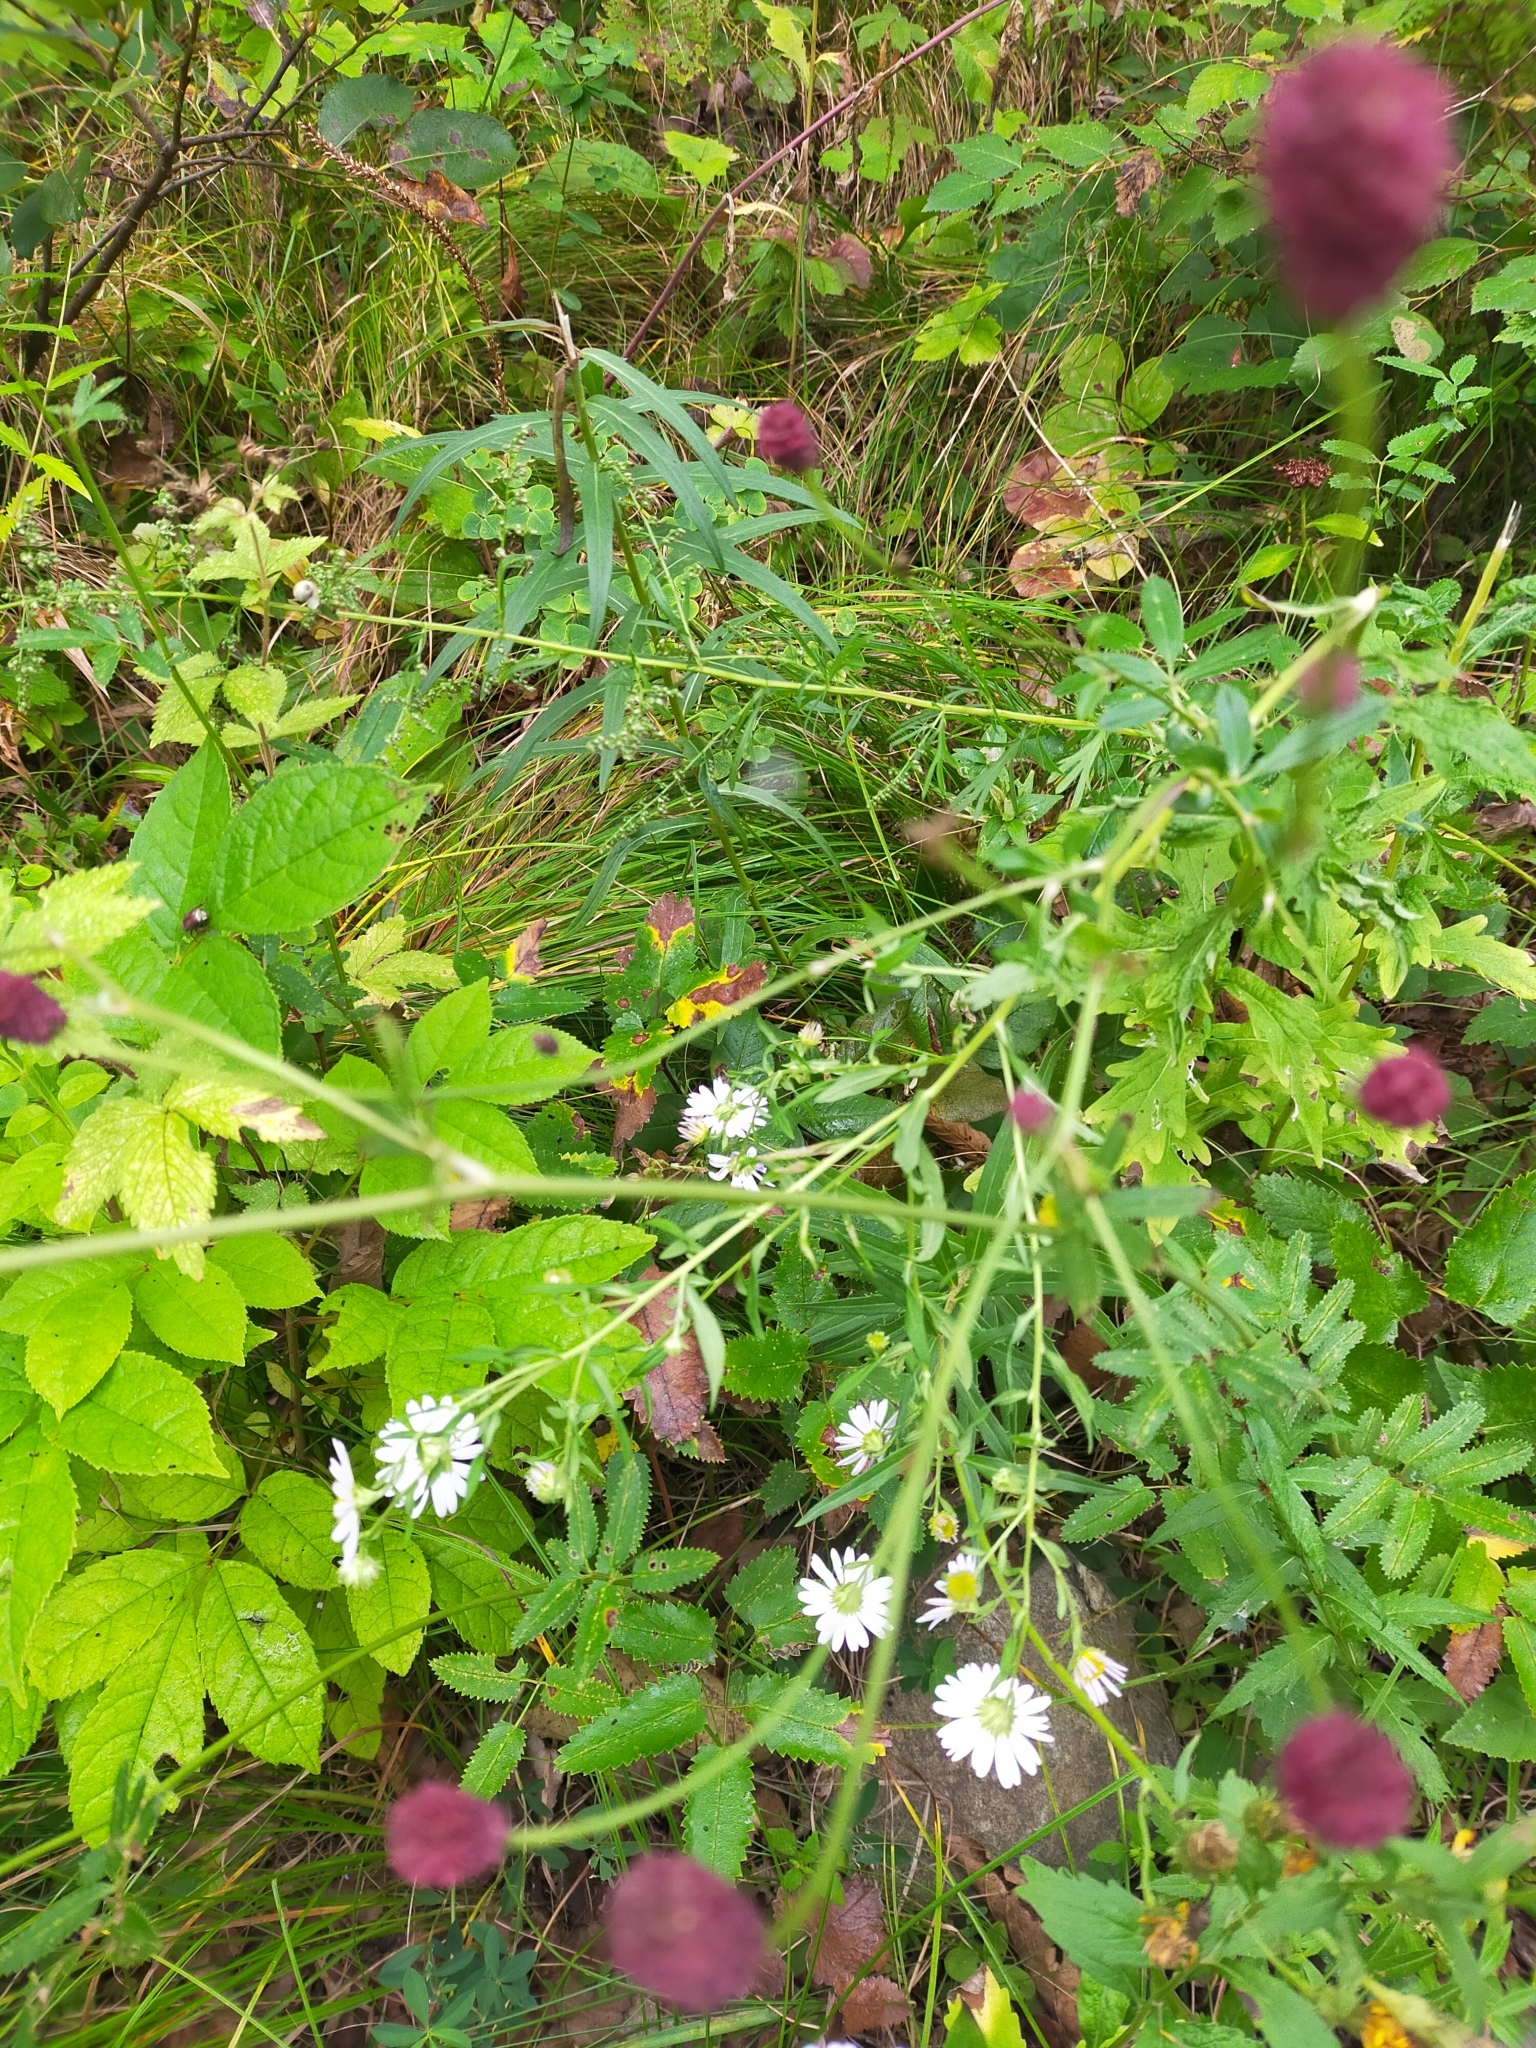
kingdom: Plantae
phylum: Tracheophyta
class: Magnoliopsida
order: Rosales
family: Rosaceae
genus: Sanguisorba
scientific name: Sanguisorba officinalis
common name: Great burnet
